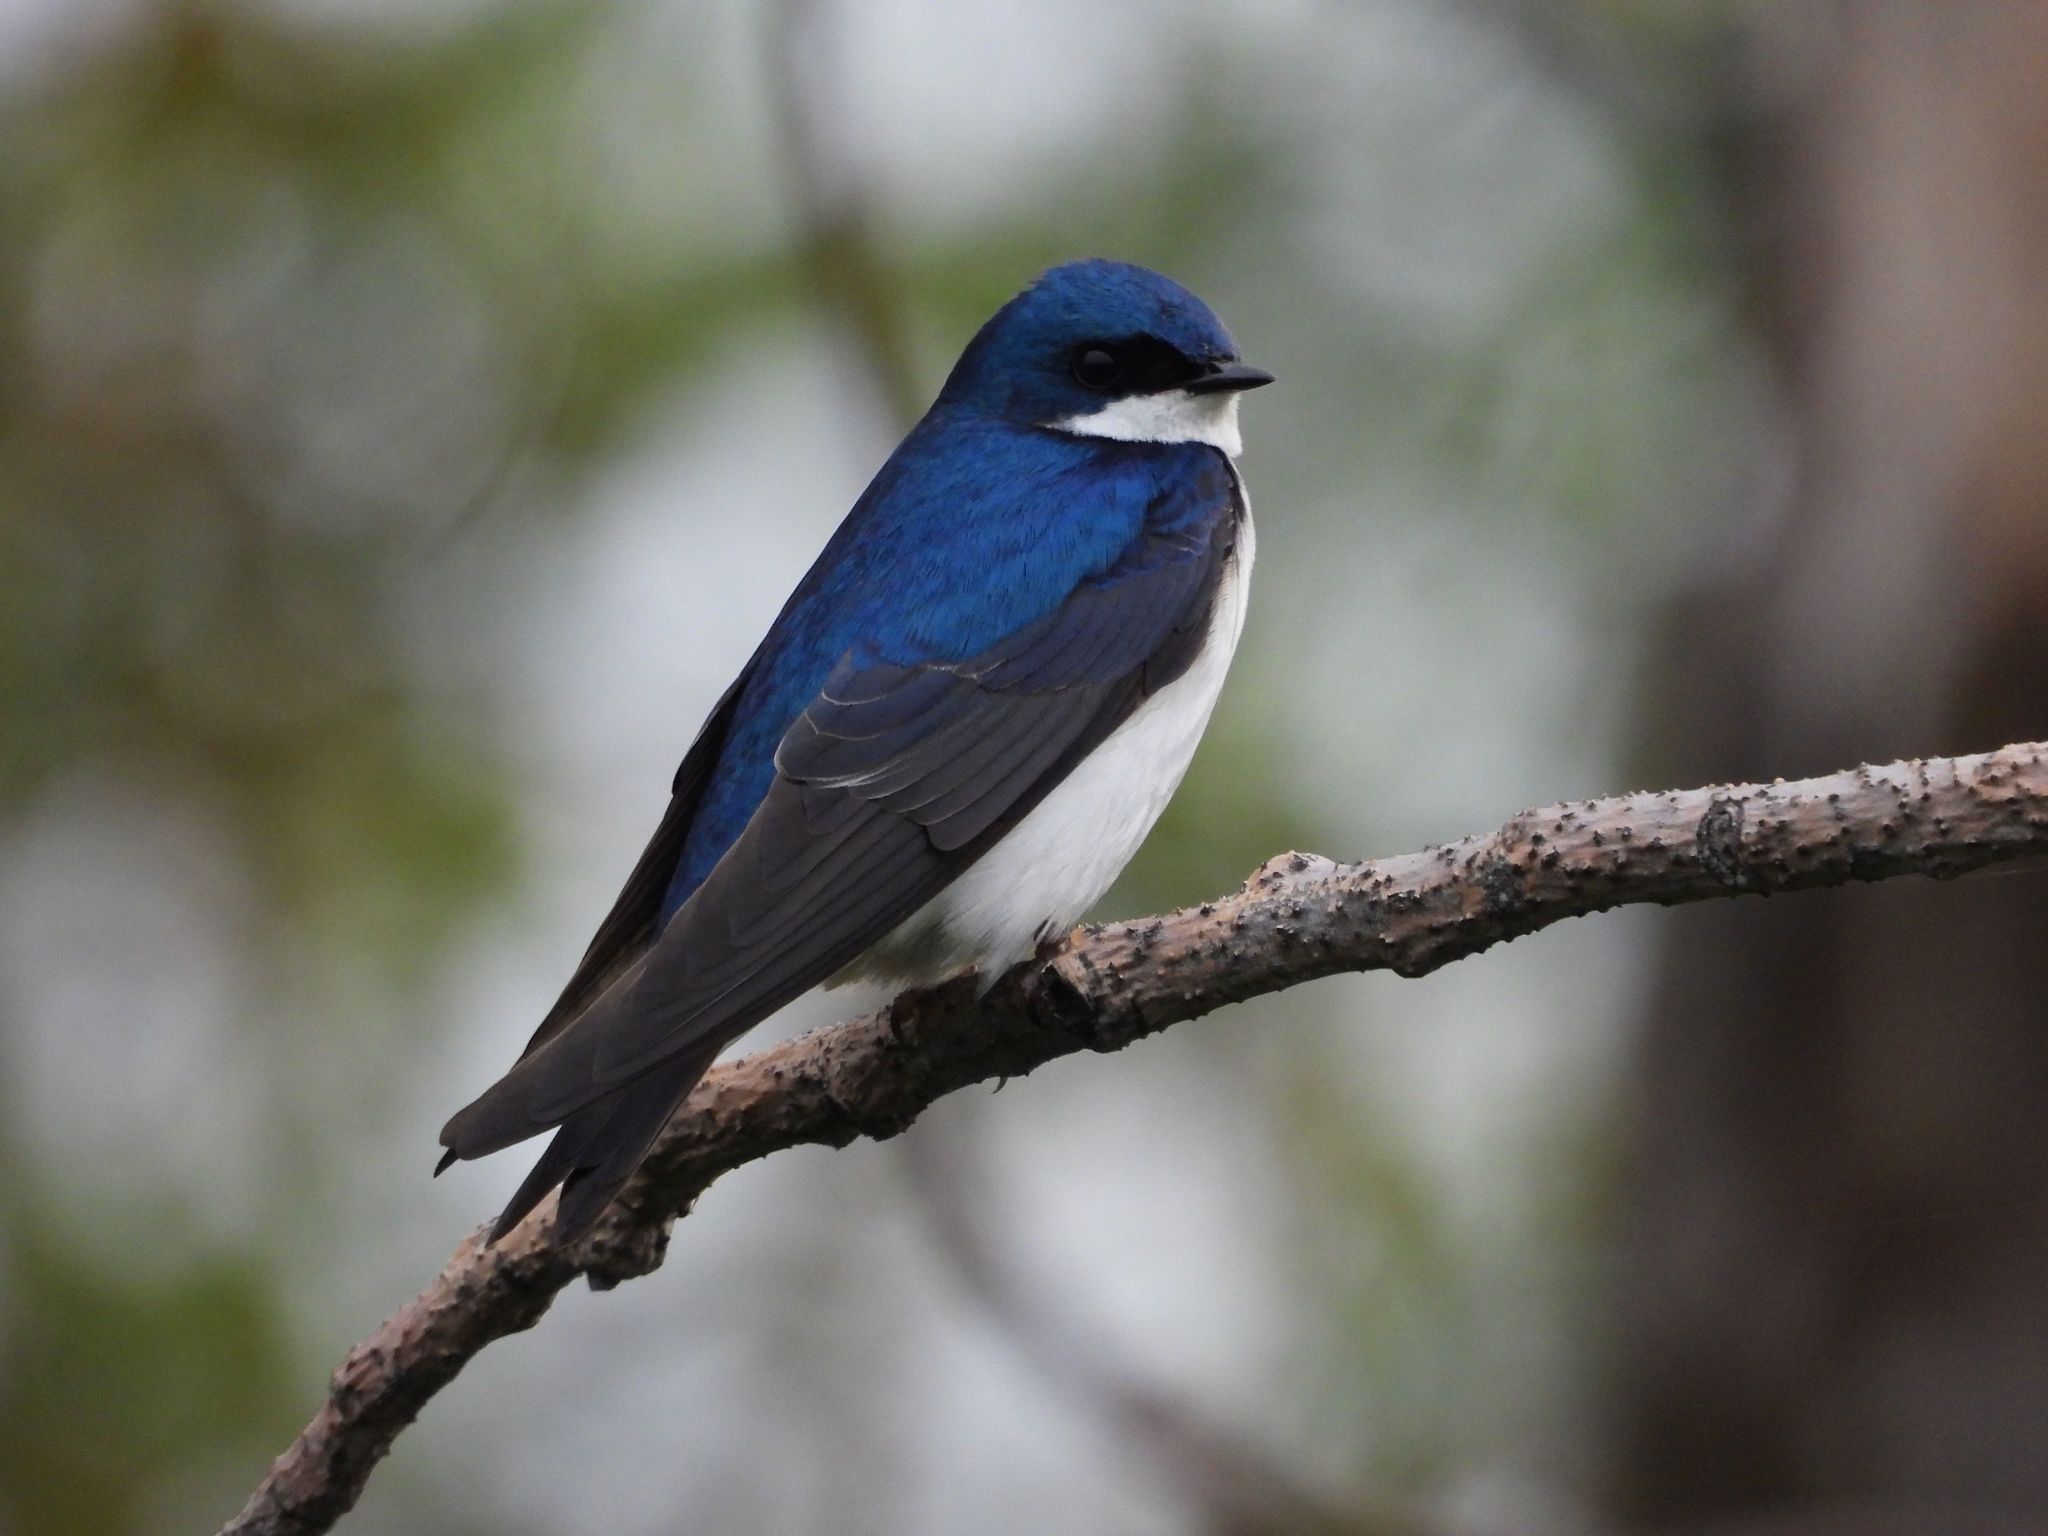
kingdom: Animalia
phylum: Chordata
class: Aves
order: Passeriformes
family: Hirundinidae
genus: Tachycineta
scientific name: Tachycineta bicolor
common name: Tree swallow
